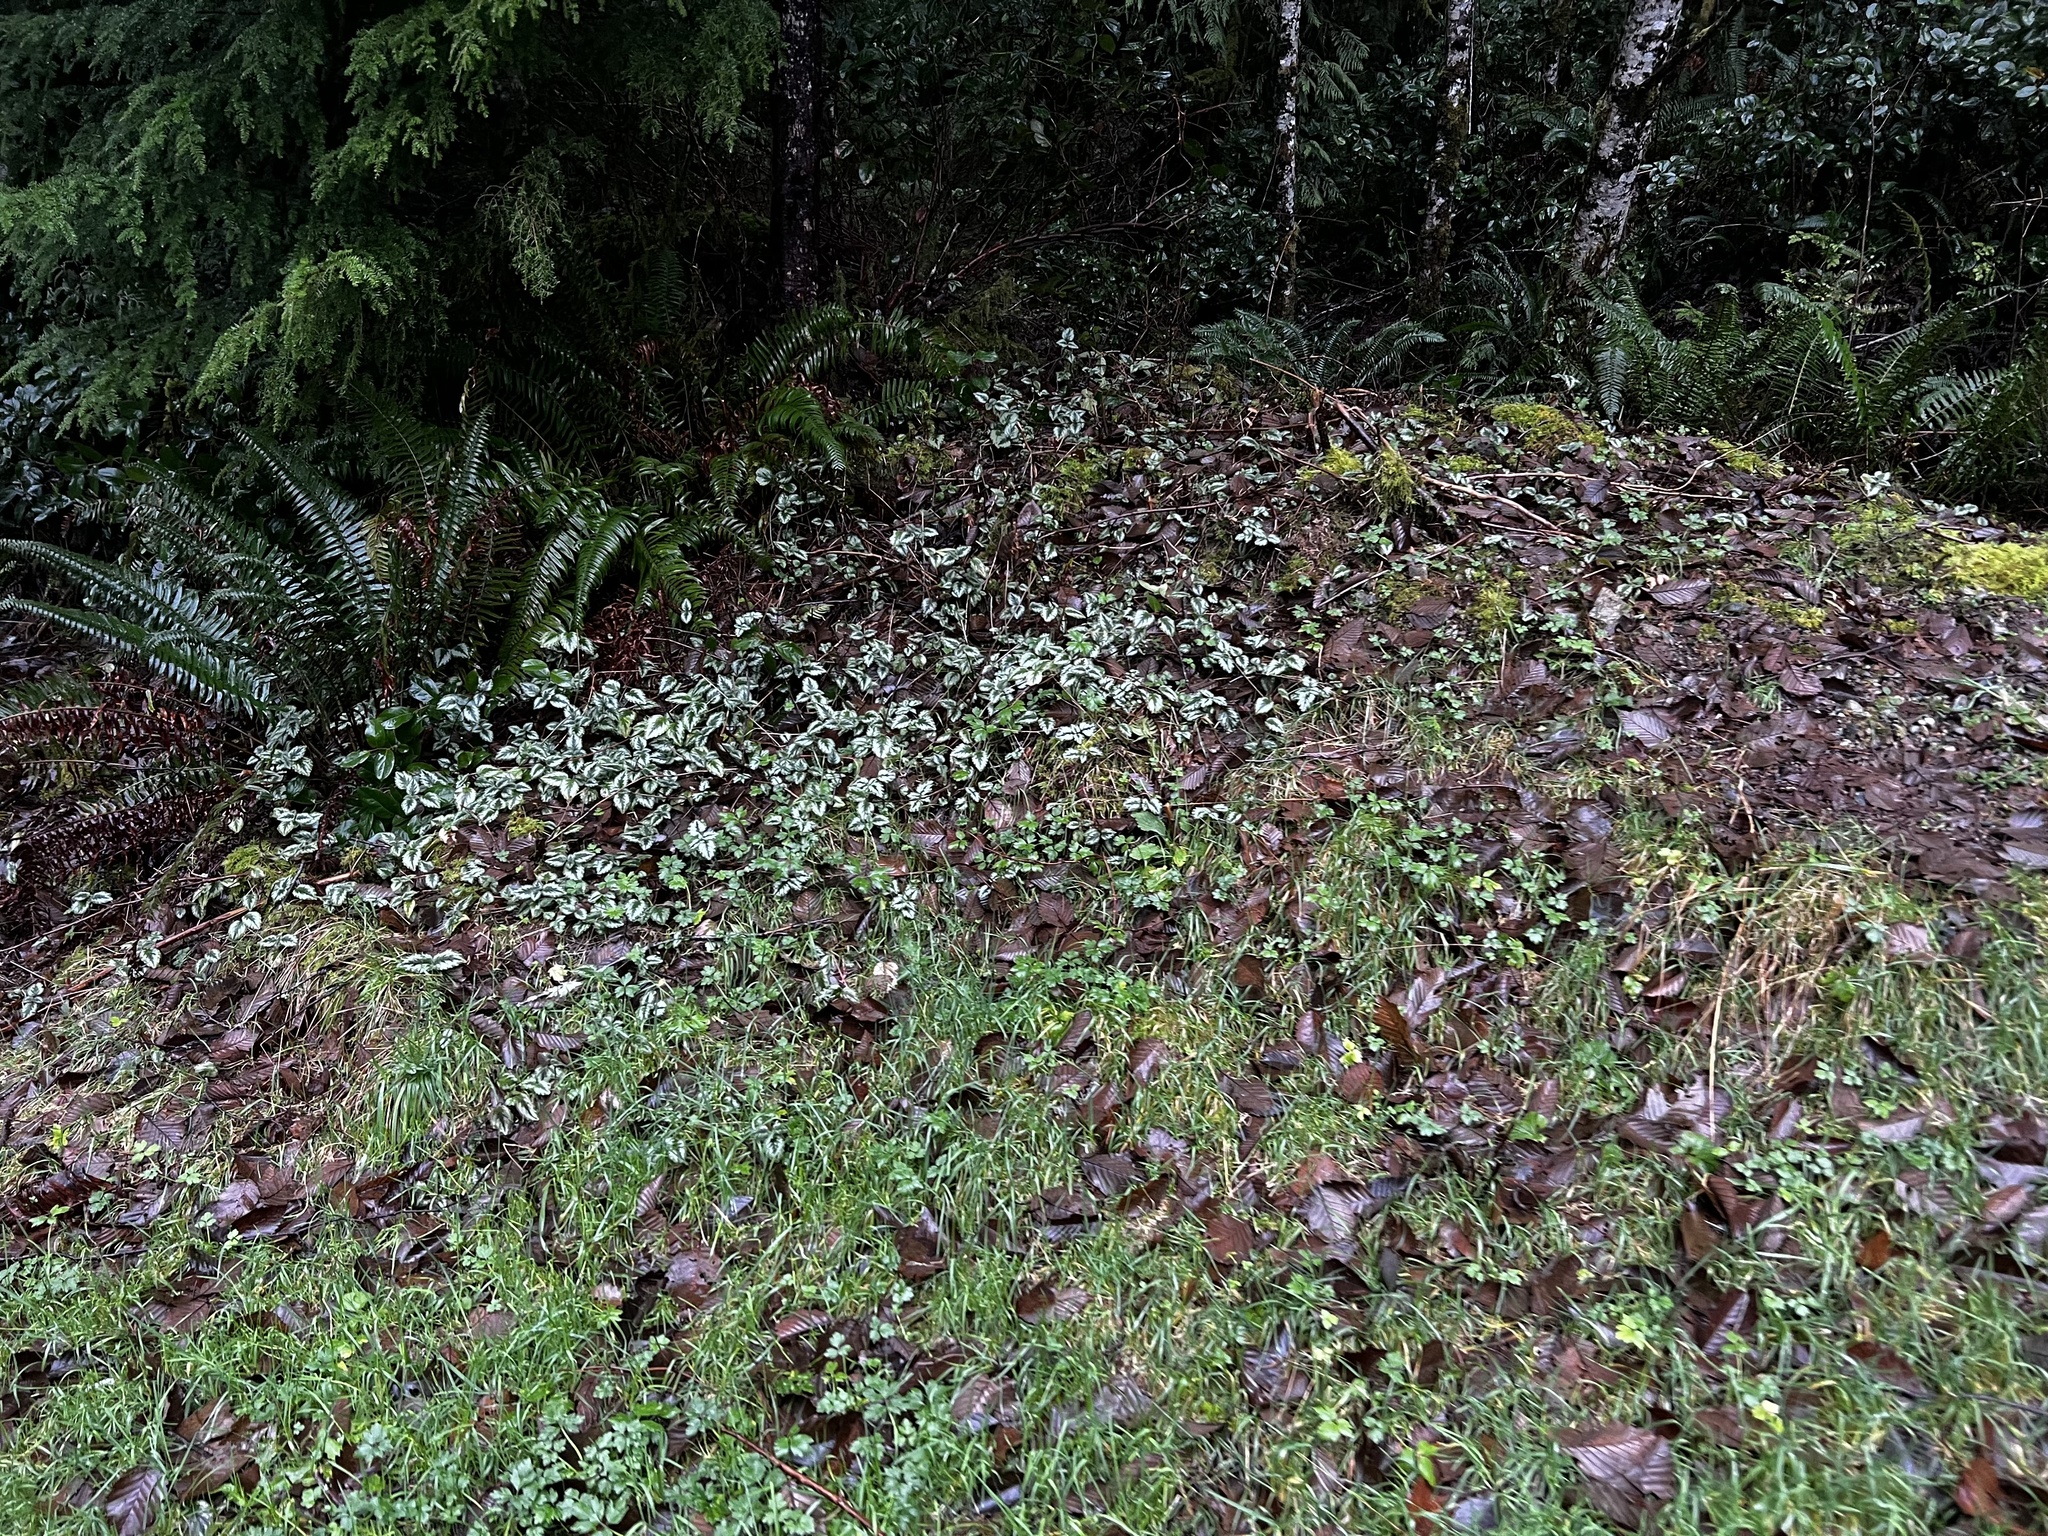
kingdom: Plantae
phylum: Tracheophyta
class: Magnoliopsida
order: Lamiales
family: Lamiaceae
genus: Lamium
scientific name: Lamium galeobdolon
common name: Yellow archangel
